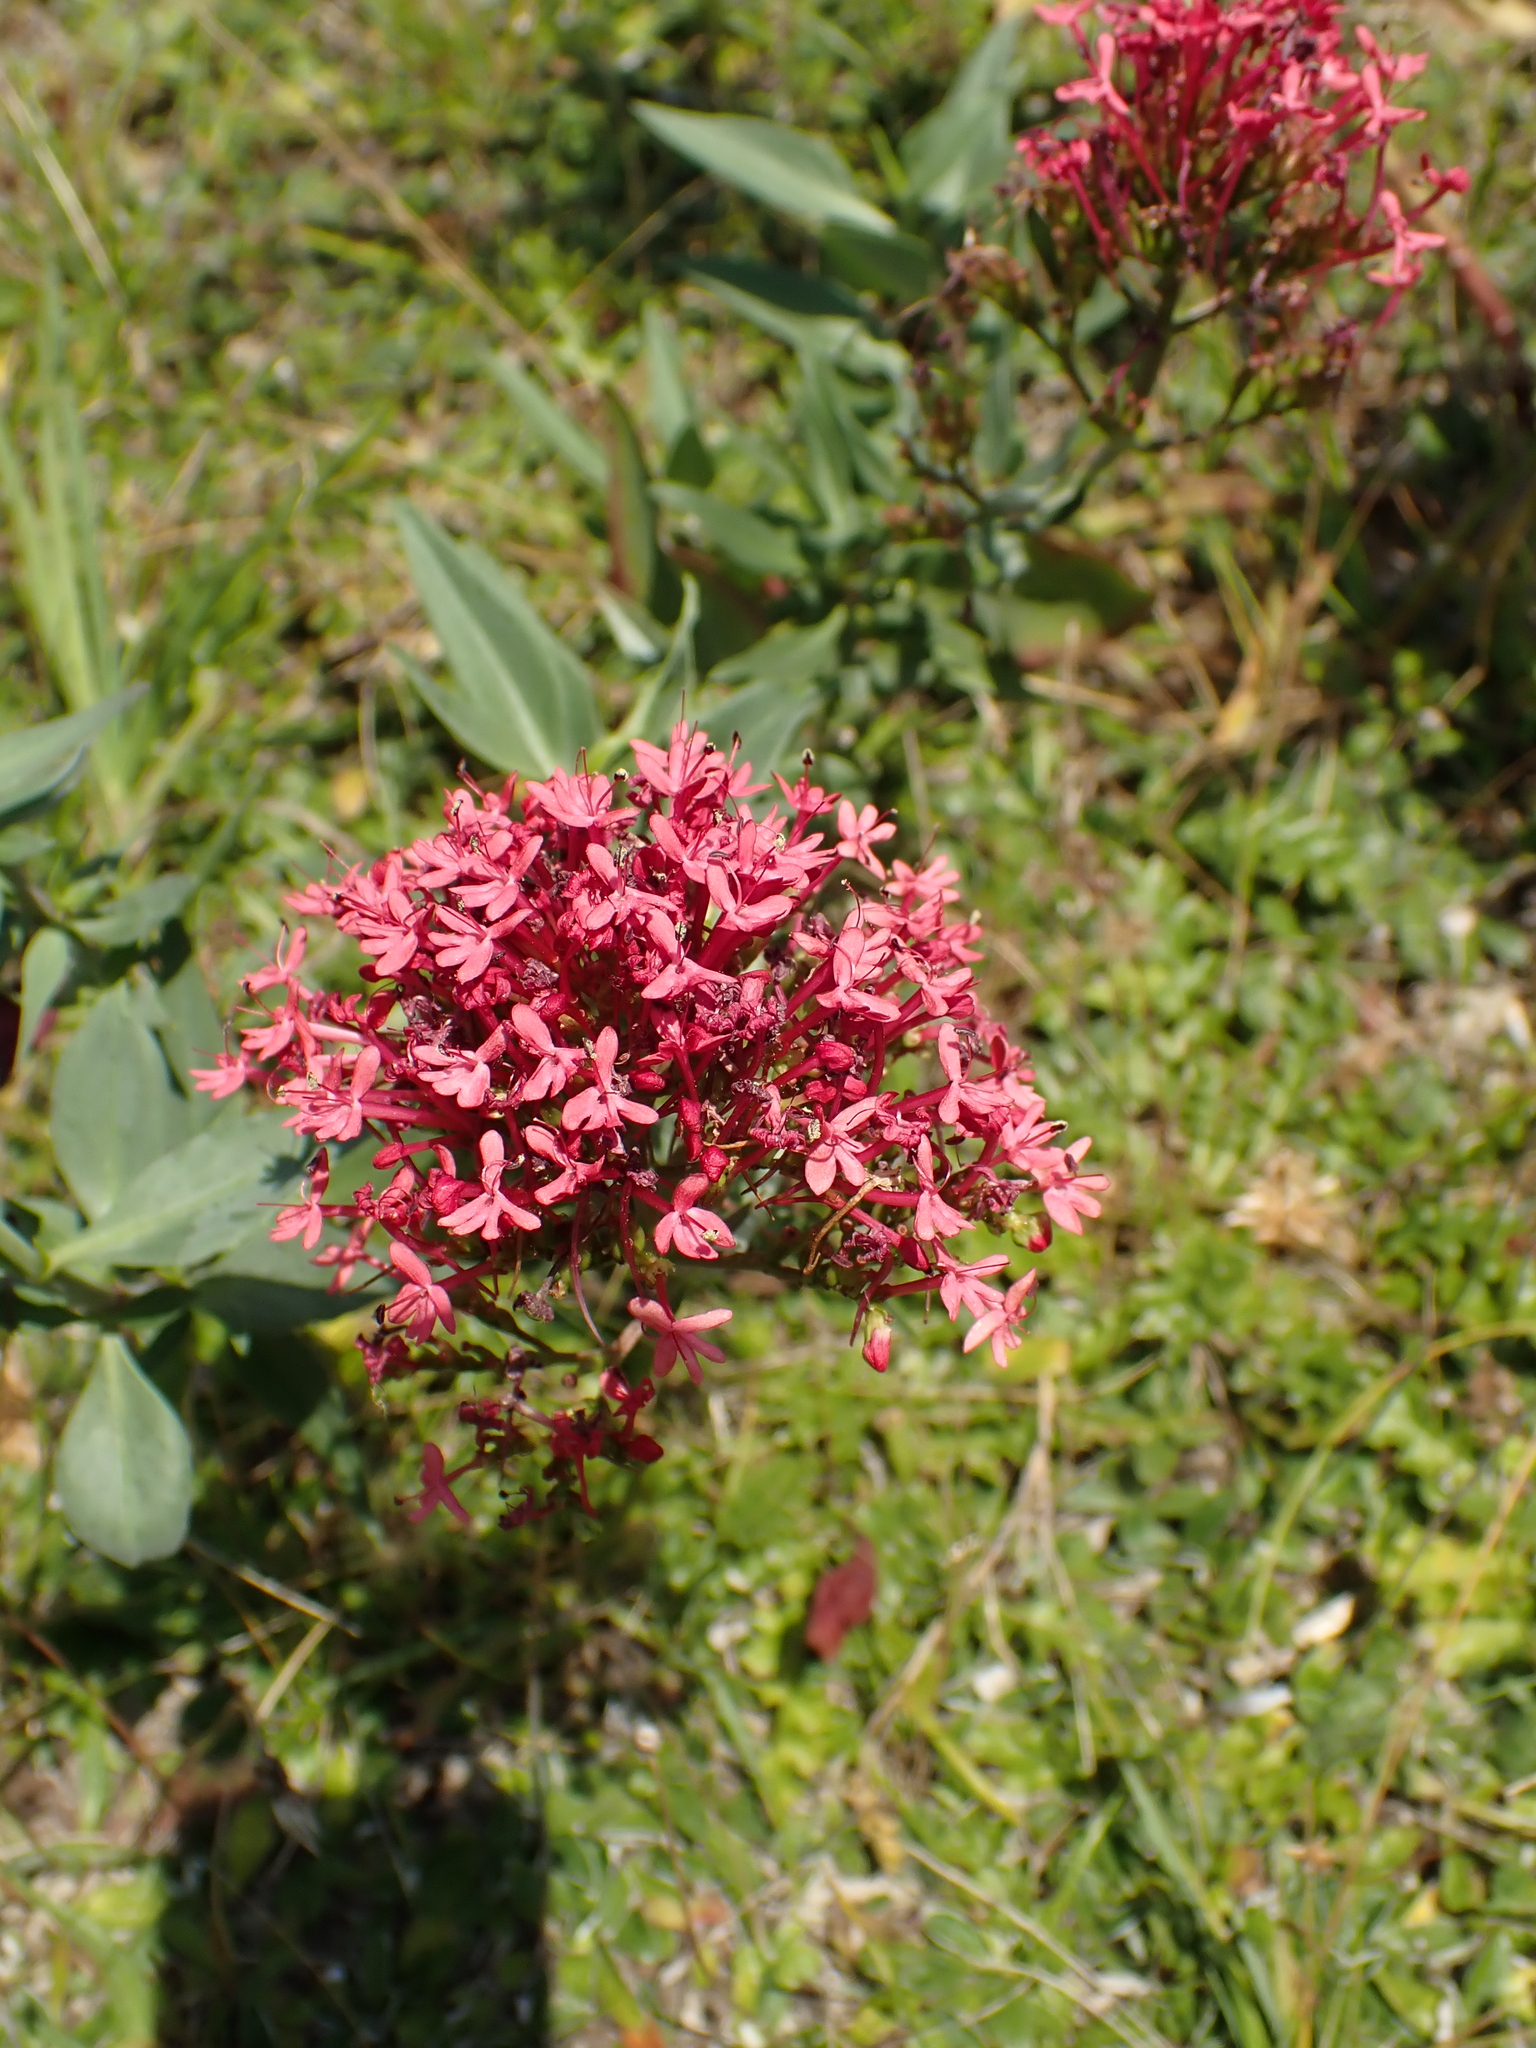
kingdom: Plantae
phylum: Tracheophyta
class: Magnoliopsida
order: Dipsacales
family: Caprifoliaceae
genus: Centranthus
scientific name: Centranthus ruber
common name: Red valerian
